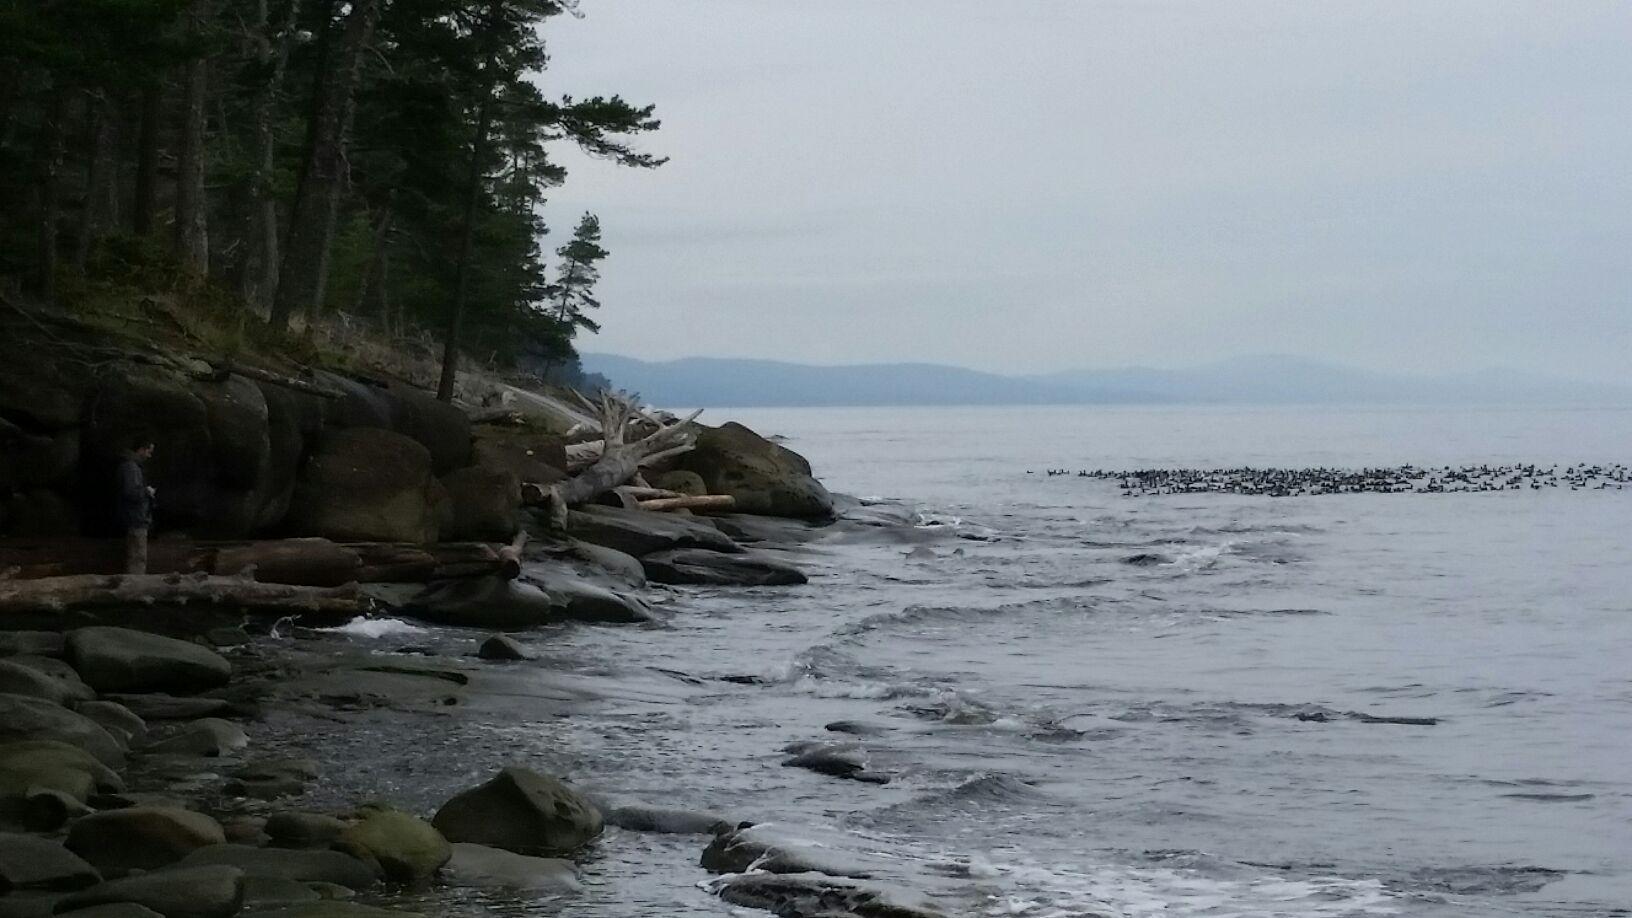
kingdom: Animalia
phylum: Chordata
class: Aves
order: Anseriformes
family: Anatidae
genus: Melanitta
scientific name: Melanitta perspicillata
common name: Surf scoter
